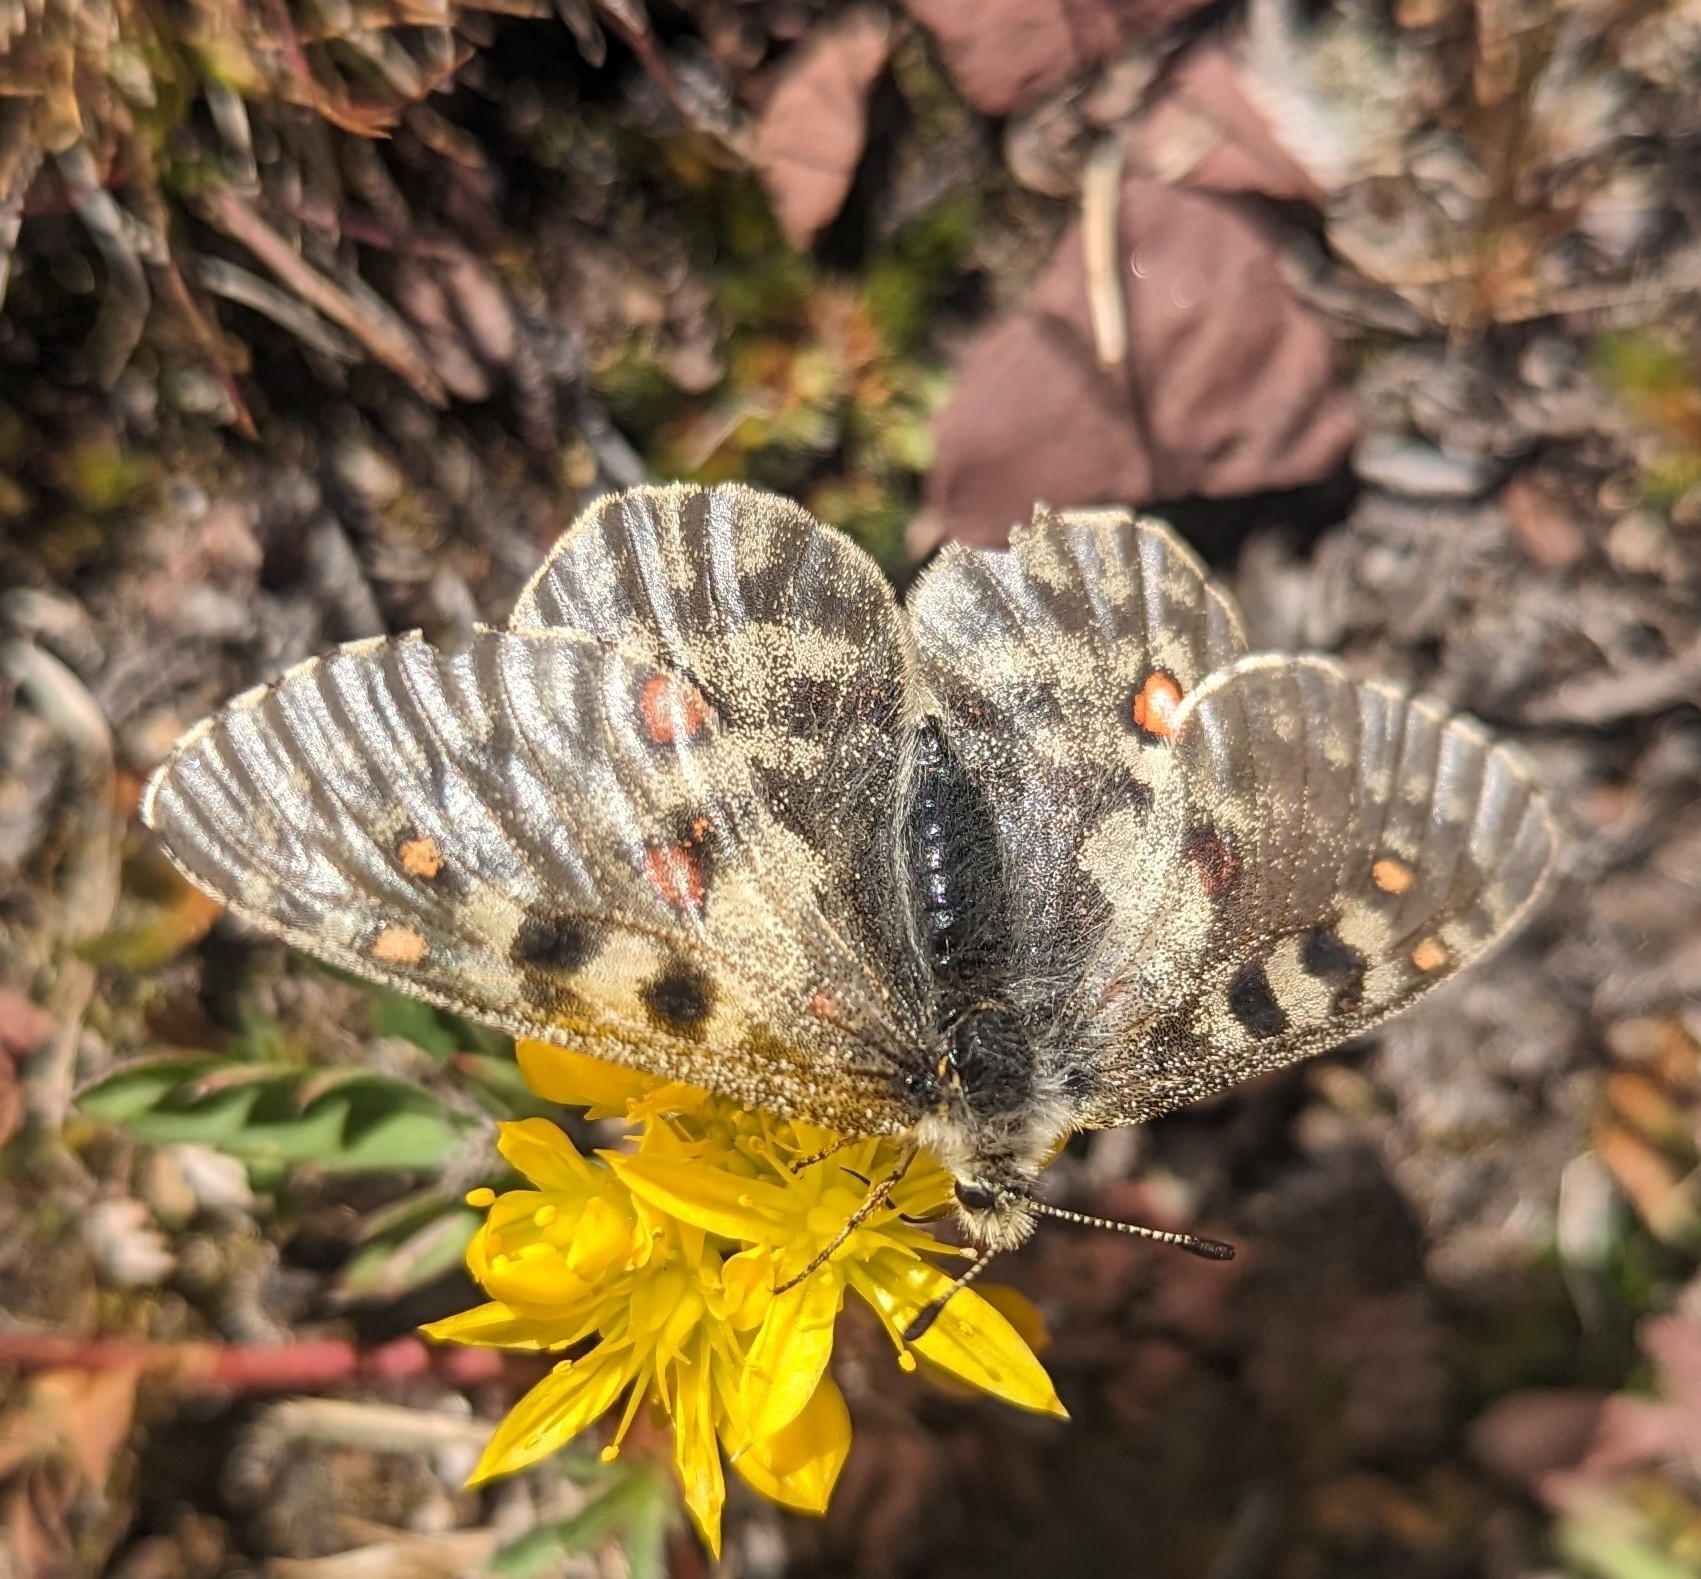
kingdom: Animalia
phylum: Arthropoda
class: Insecta
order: Lepidoptera
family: Papilionidae
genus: Parnassius
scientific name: Parnassius smintheus
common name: Mountain parnassian
